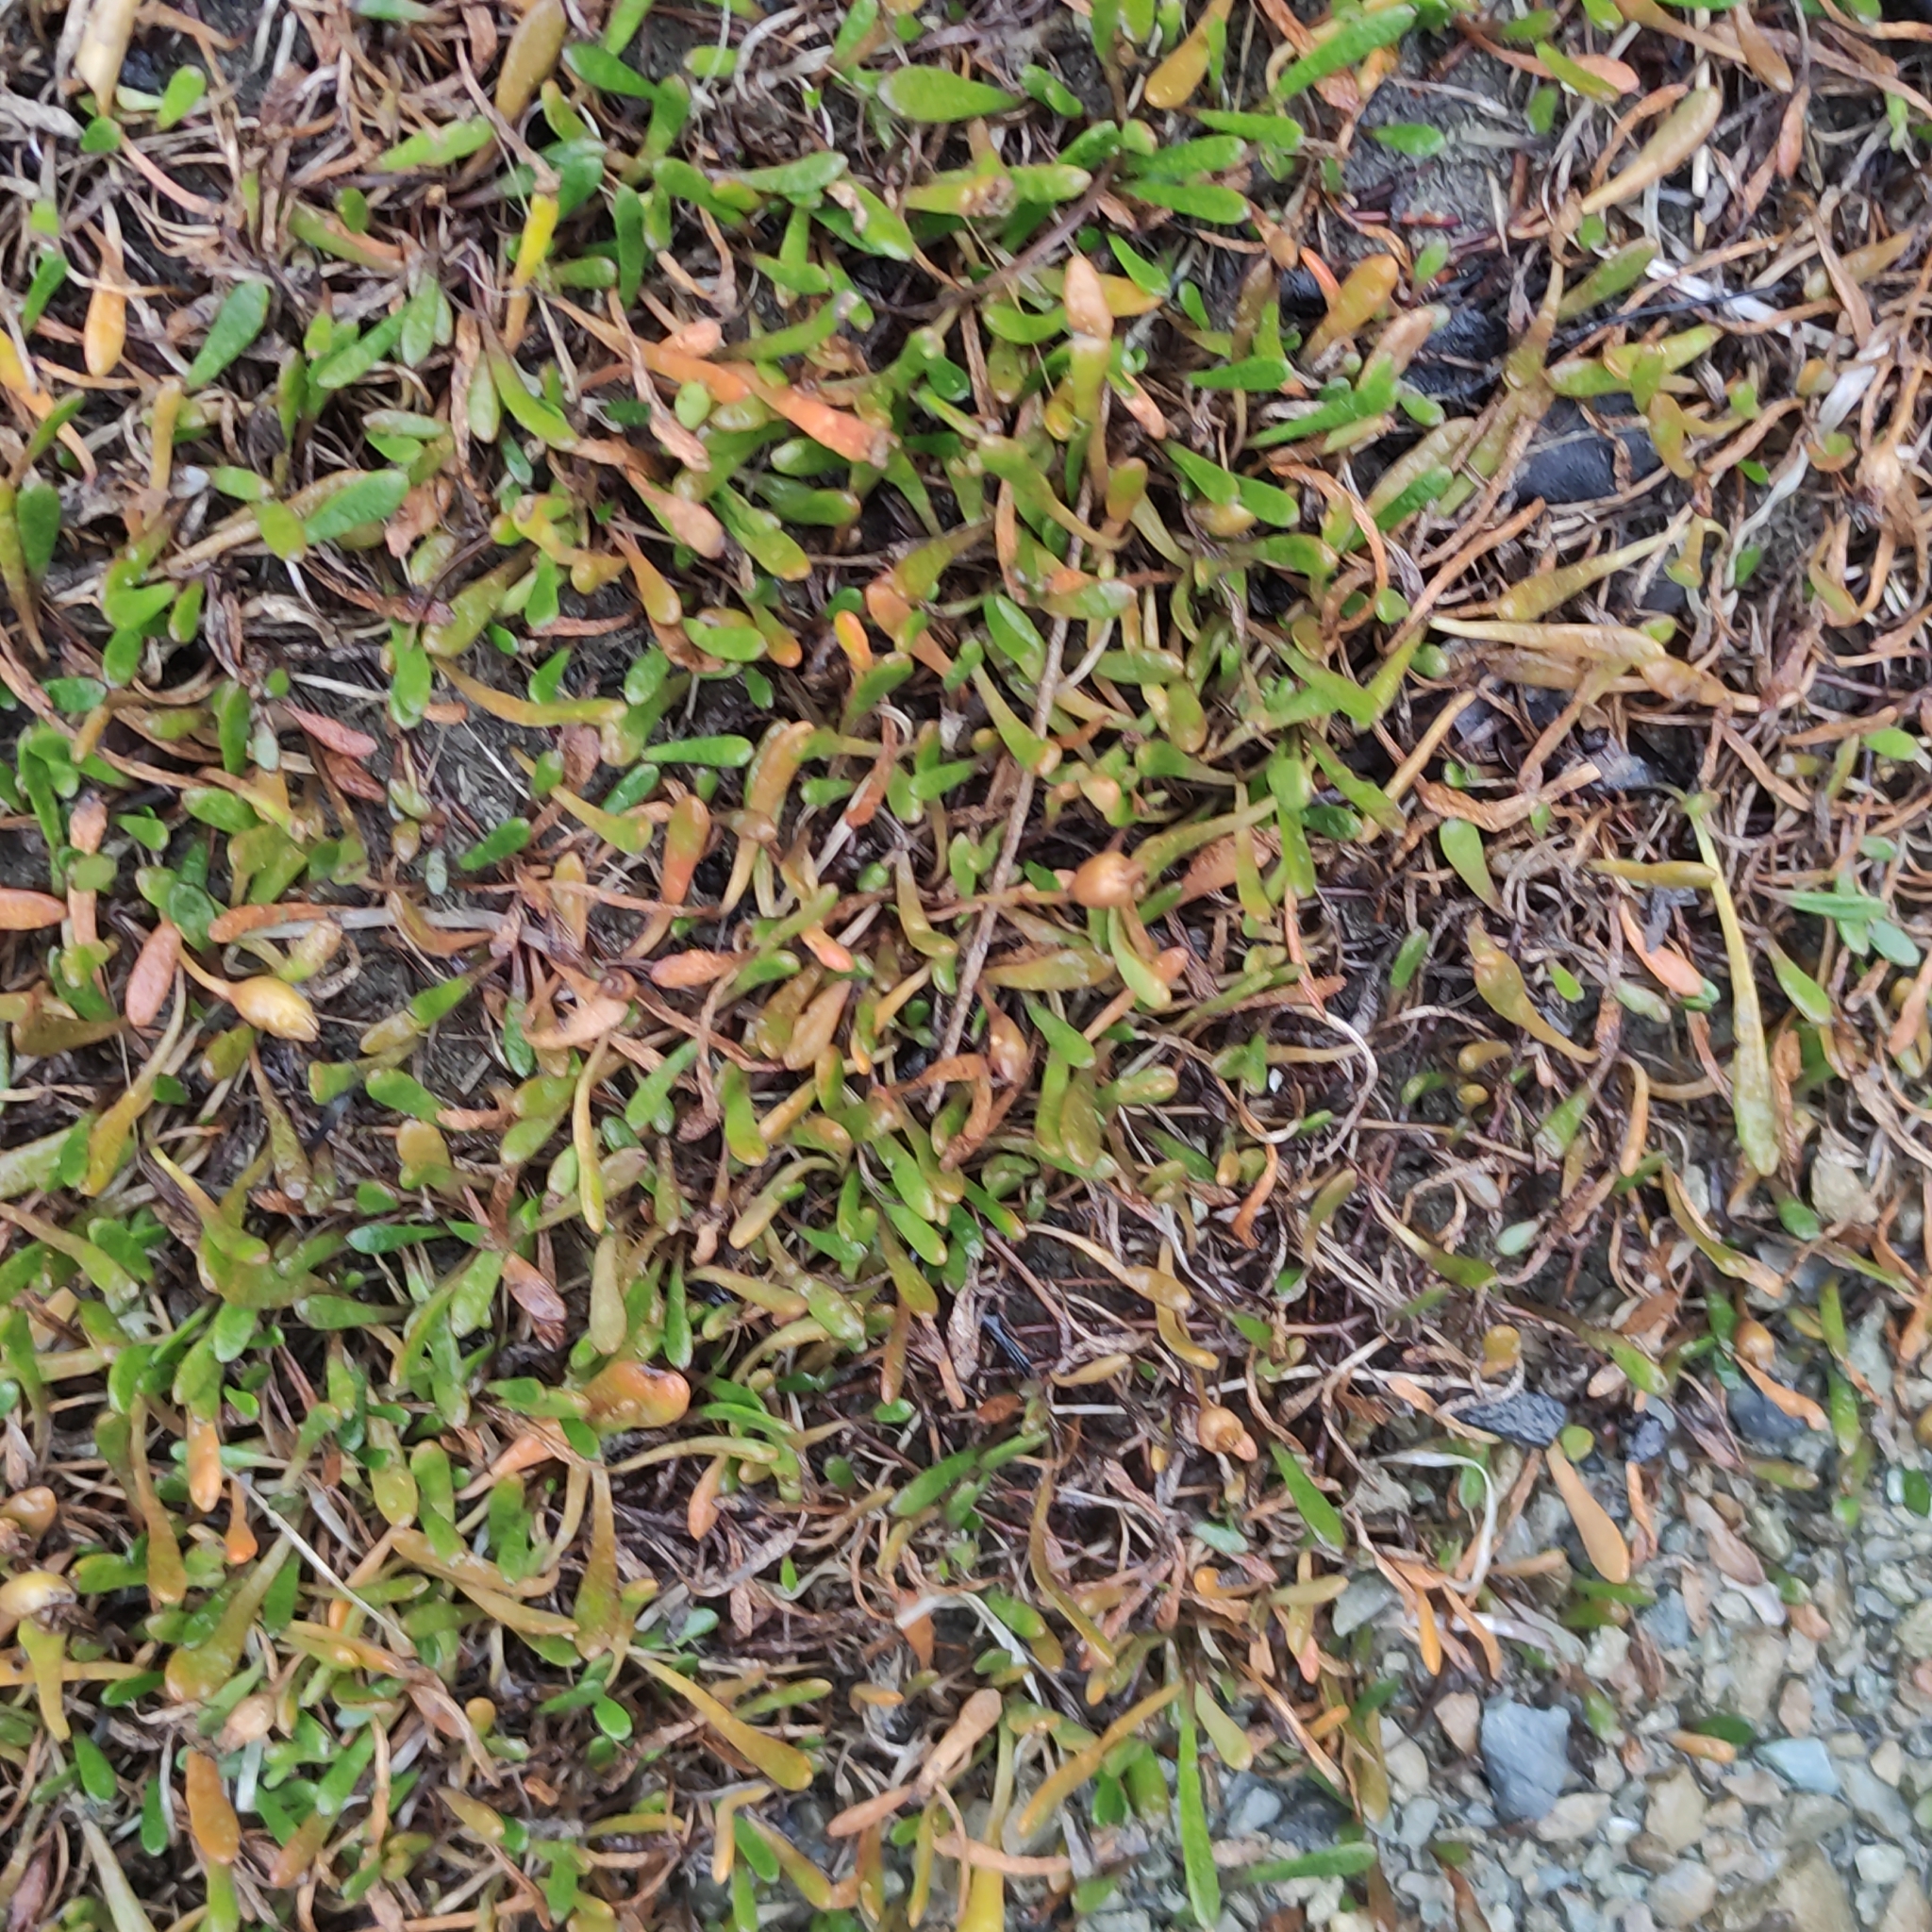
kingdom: Plantae
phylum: Tracheophyta
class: Magnoliopsida
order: Asterales
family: Goodeniaceae
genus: Goodenia
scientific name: Goodenia radicans
